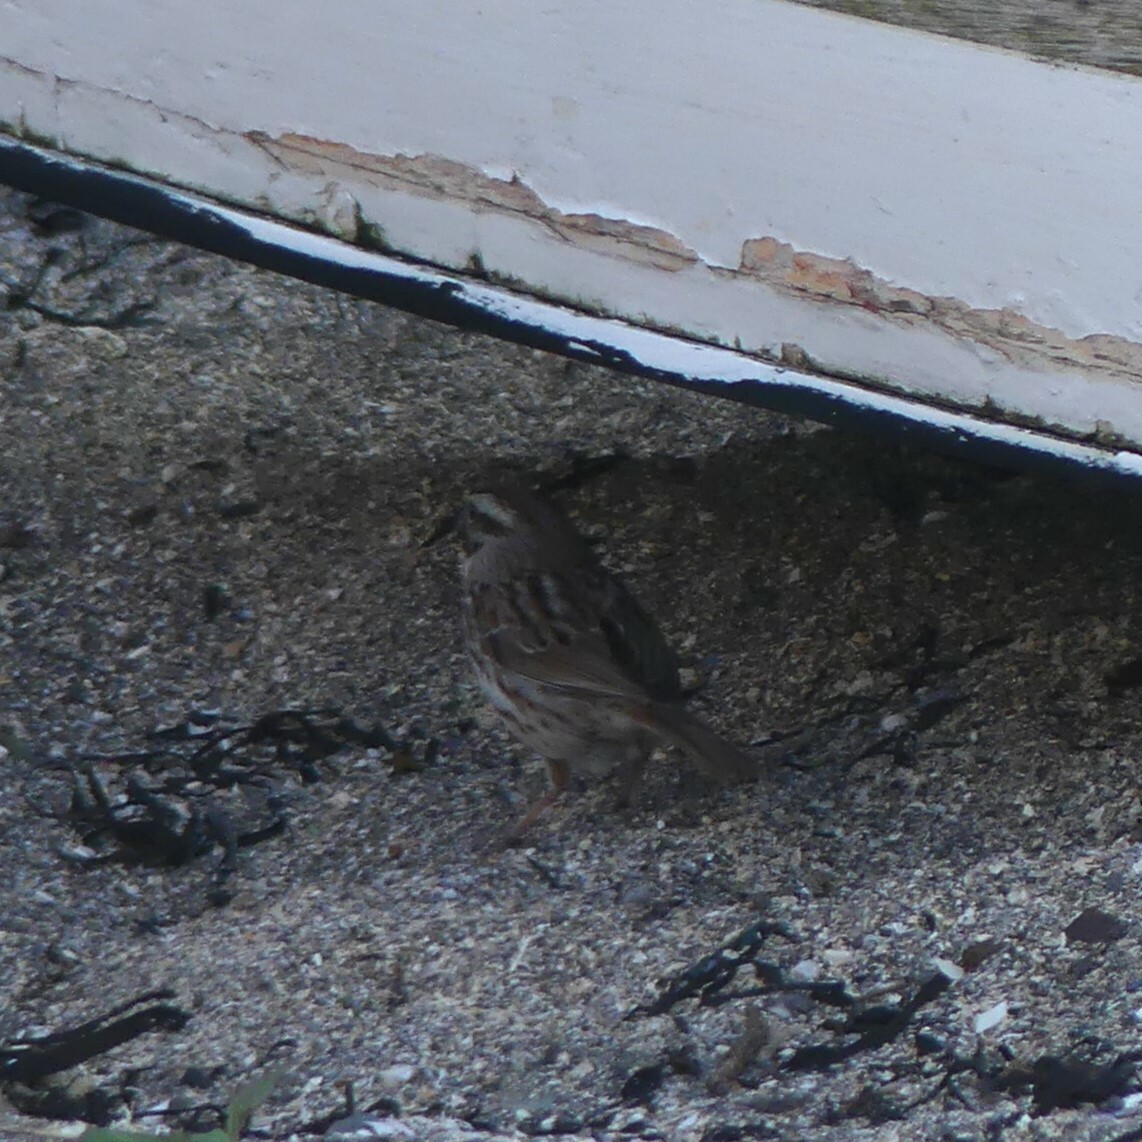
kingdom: Animalia
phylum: Chordata
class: Aves
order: Passeriformes
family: Passerellidae
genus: Melospiza
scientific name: Melospiza melodia
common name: Song sparrow
